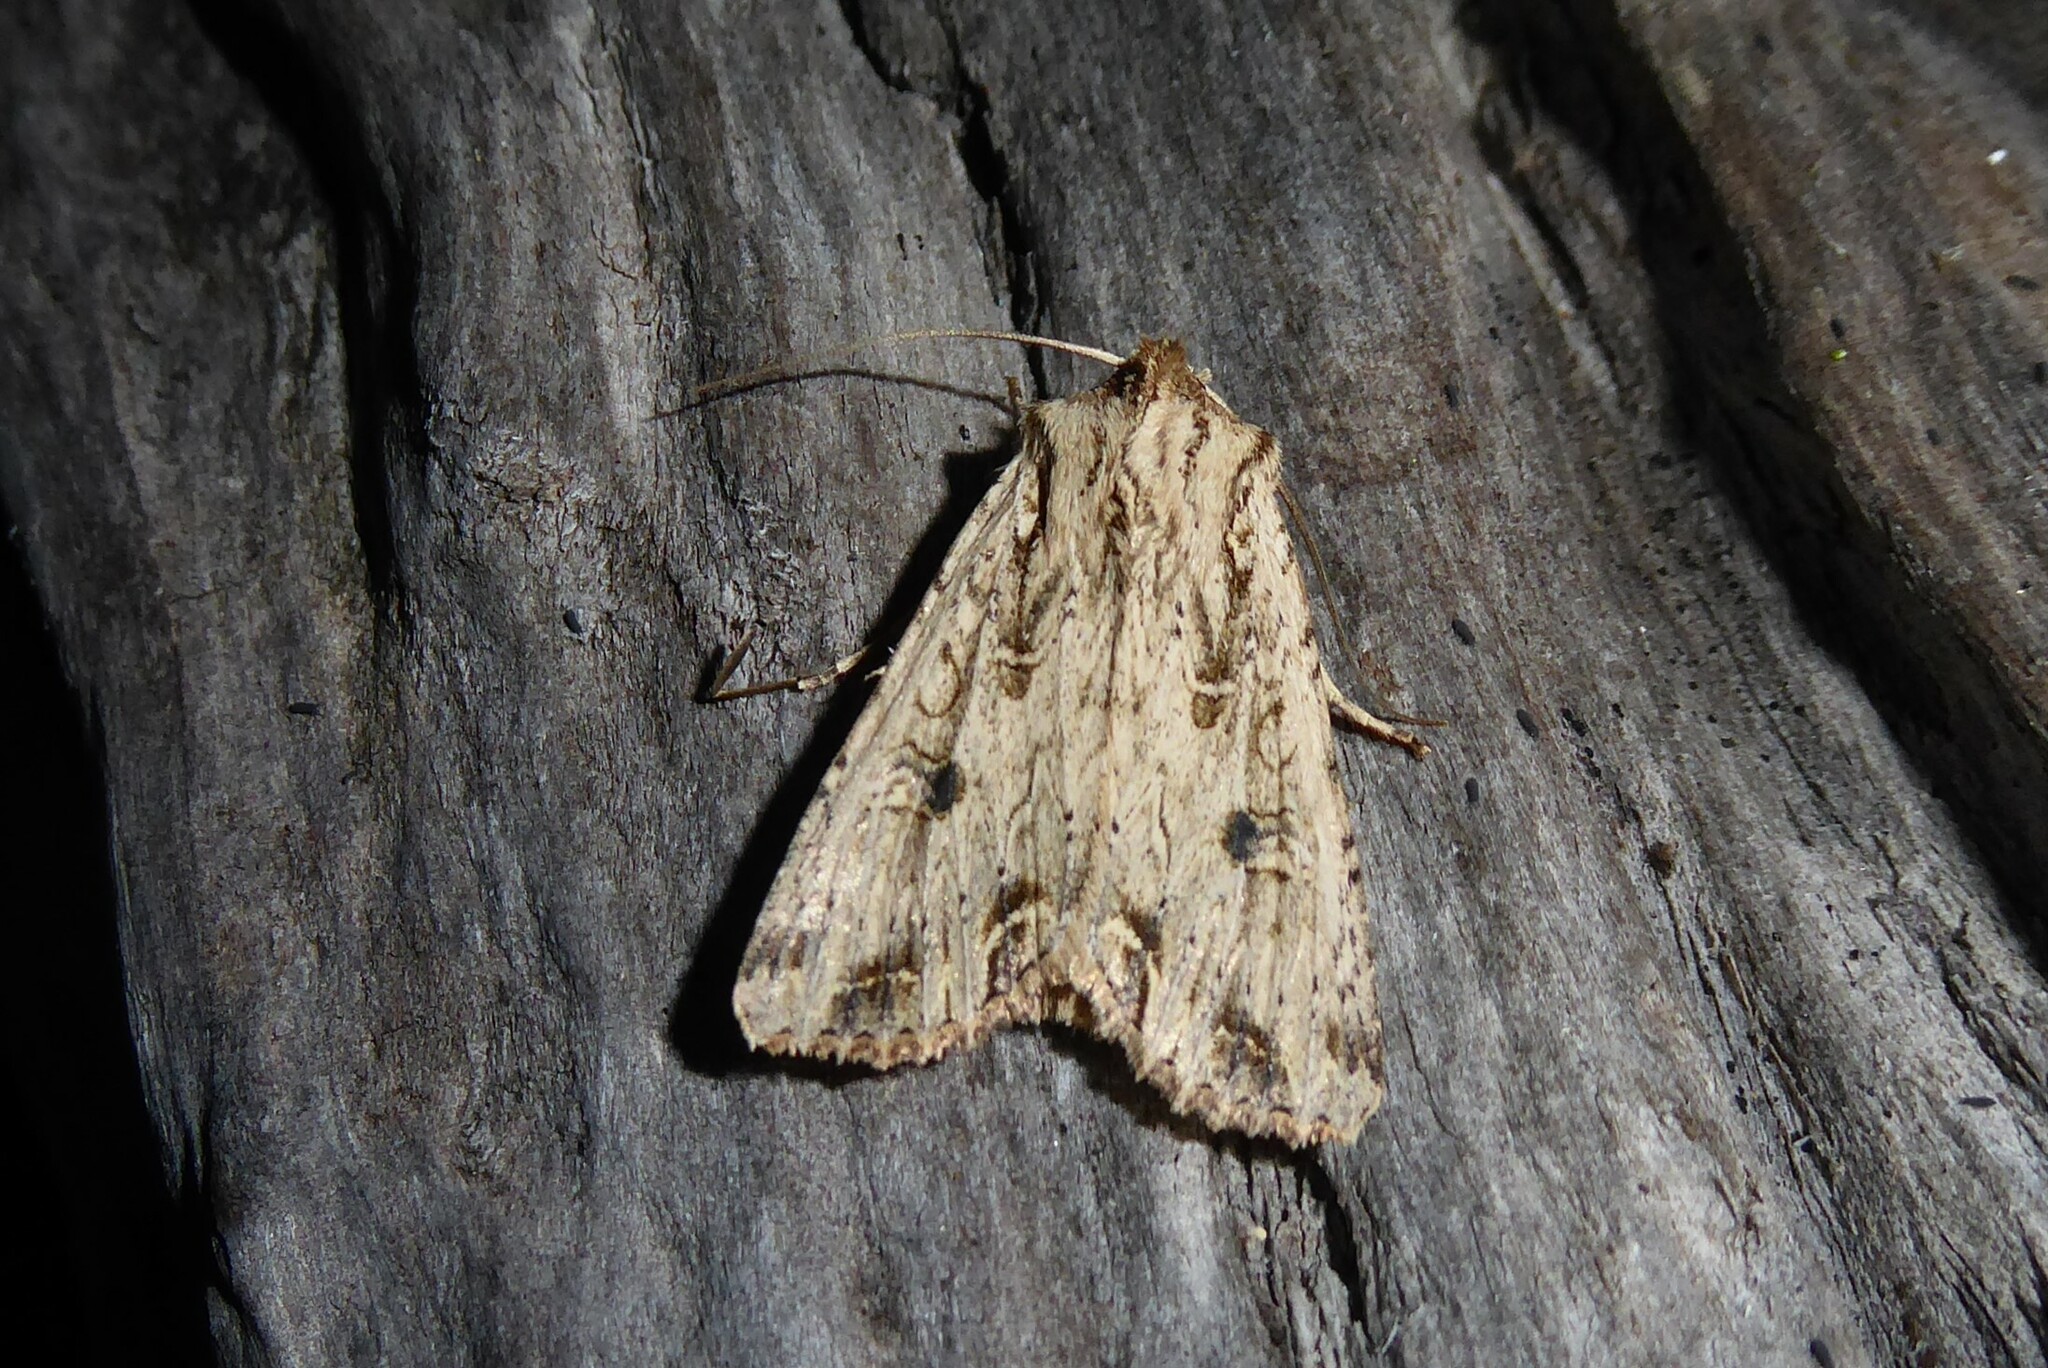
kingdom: Animalia
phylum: Arthropoda
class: Insecta
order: Lepidoptera
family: Noctuidae
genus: Ichneutica
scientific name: Ichneutica lignana
